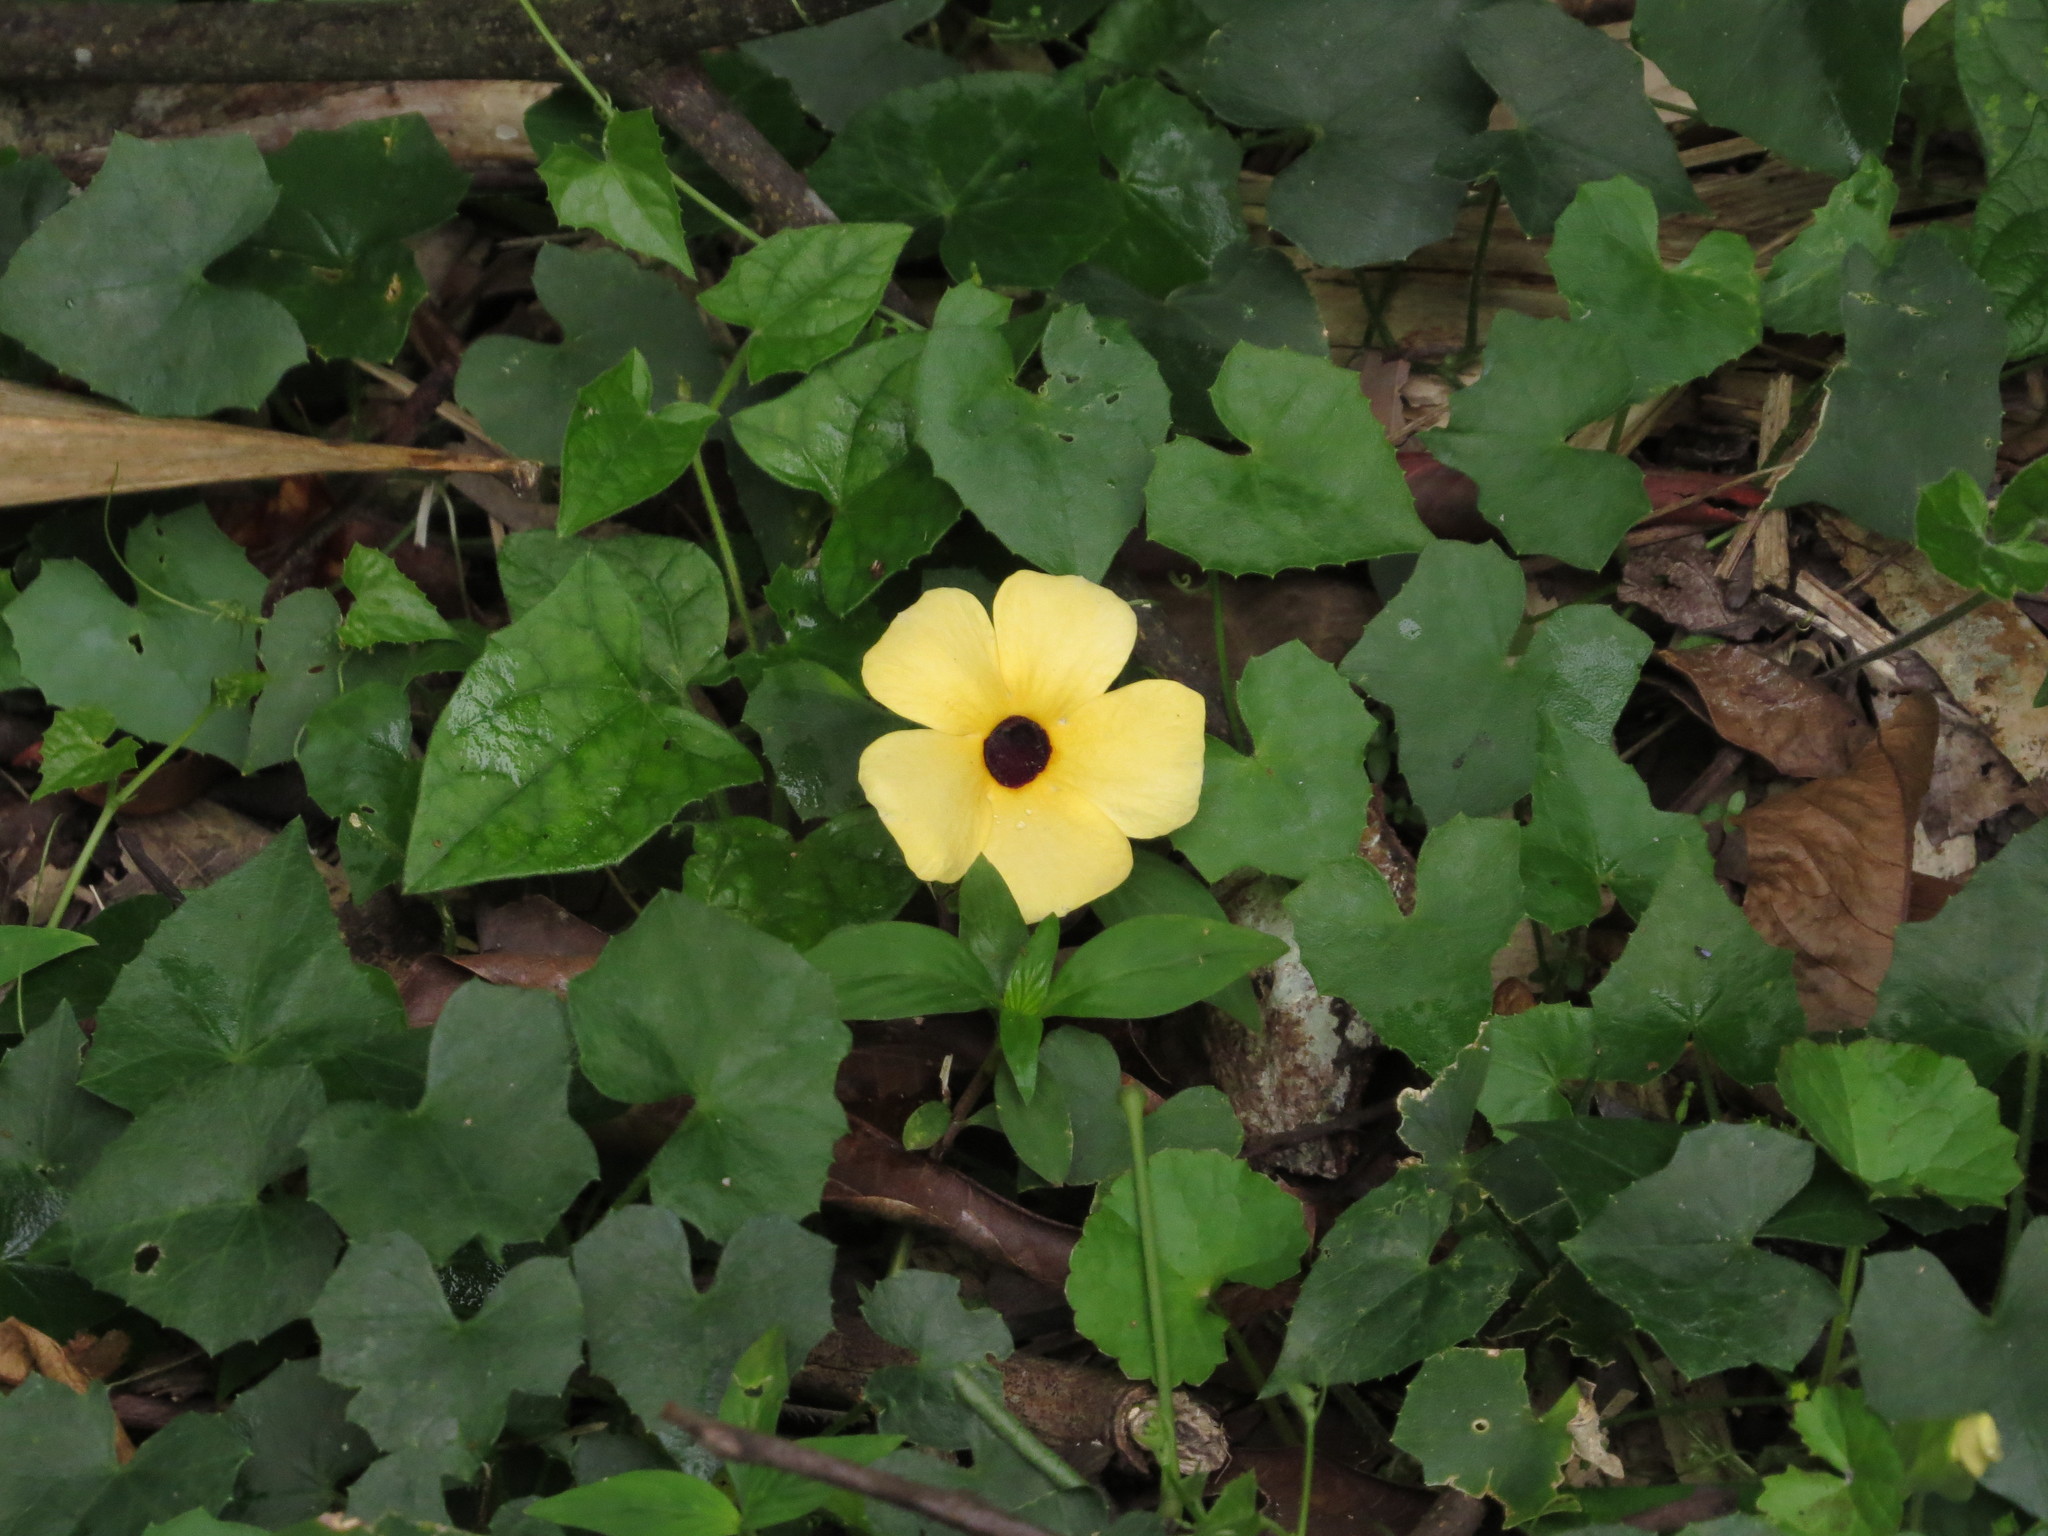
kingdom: Plantae
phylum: Tracheophyta
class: Magnoliopsida
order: Lamiales
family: Acanthaceae
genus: Thunbergia
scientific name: Thunbergia alata
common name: Blackeyed susan vine
